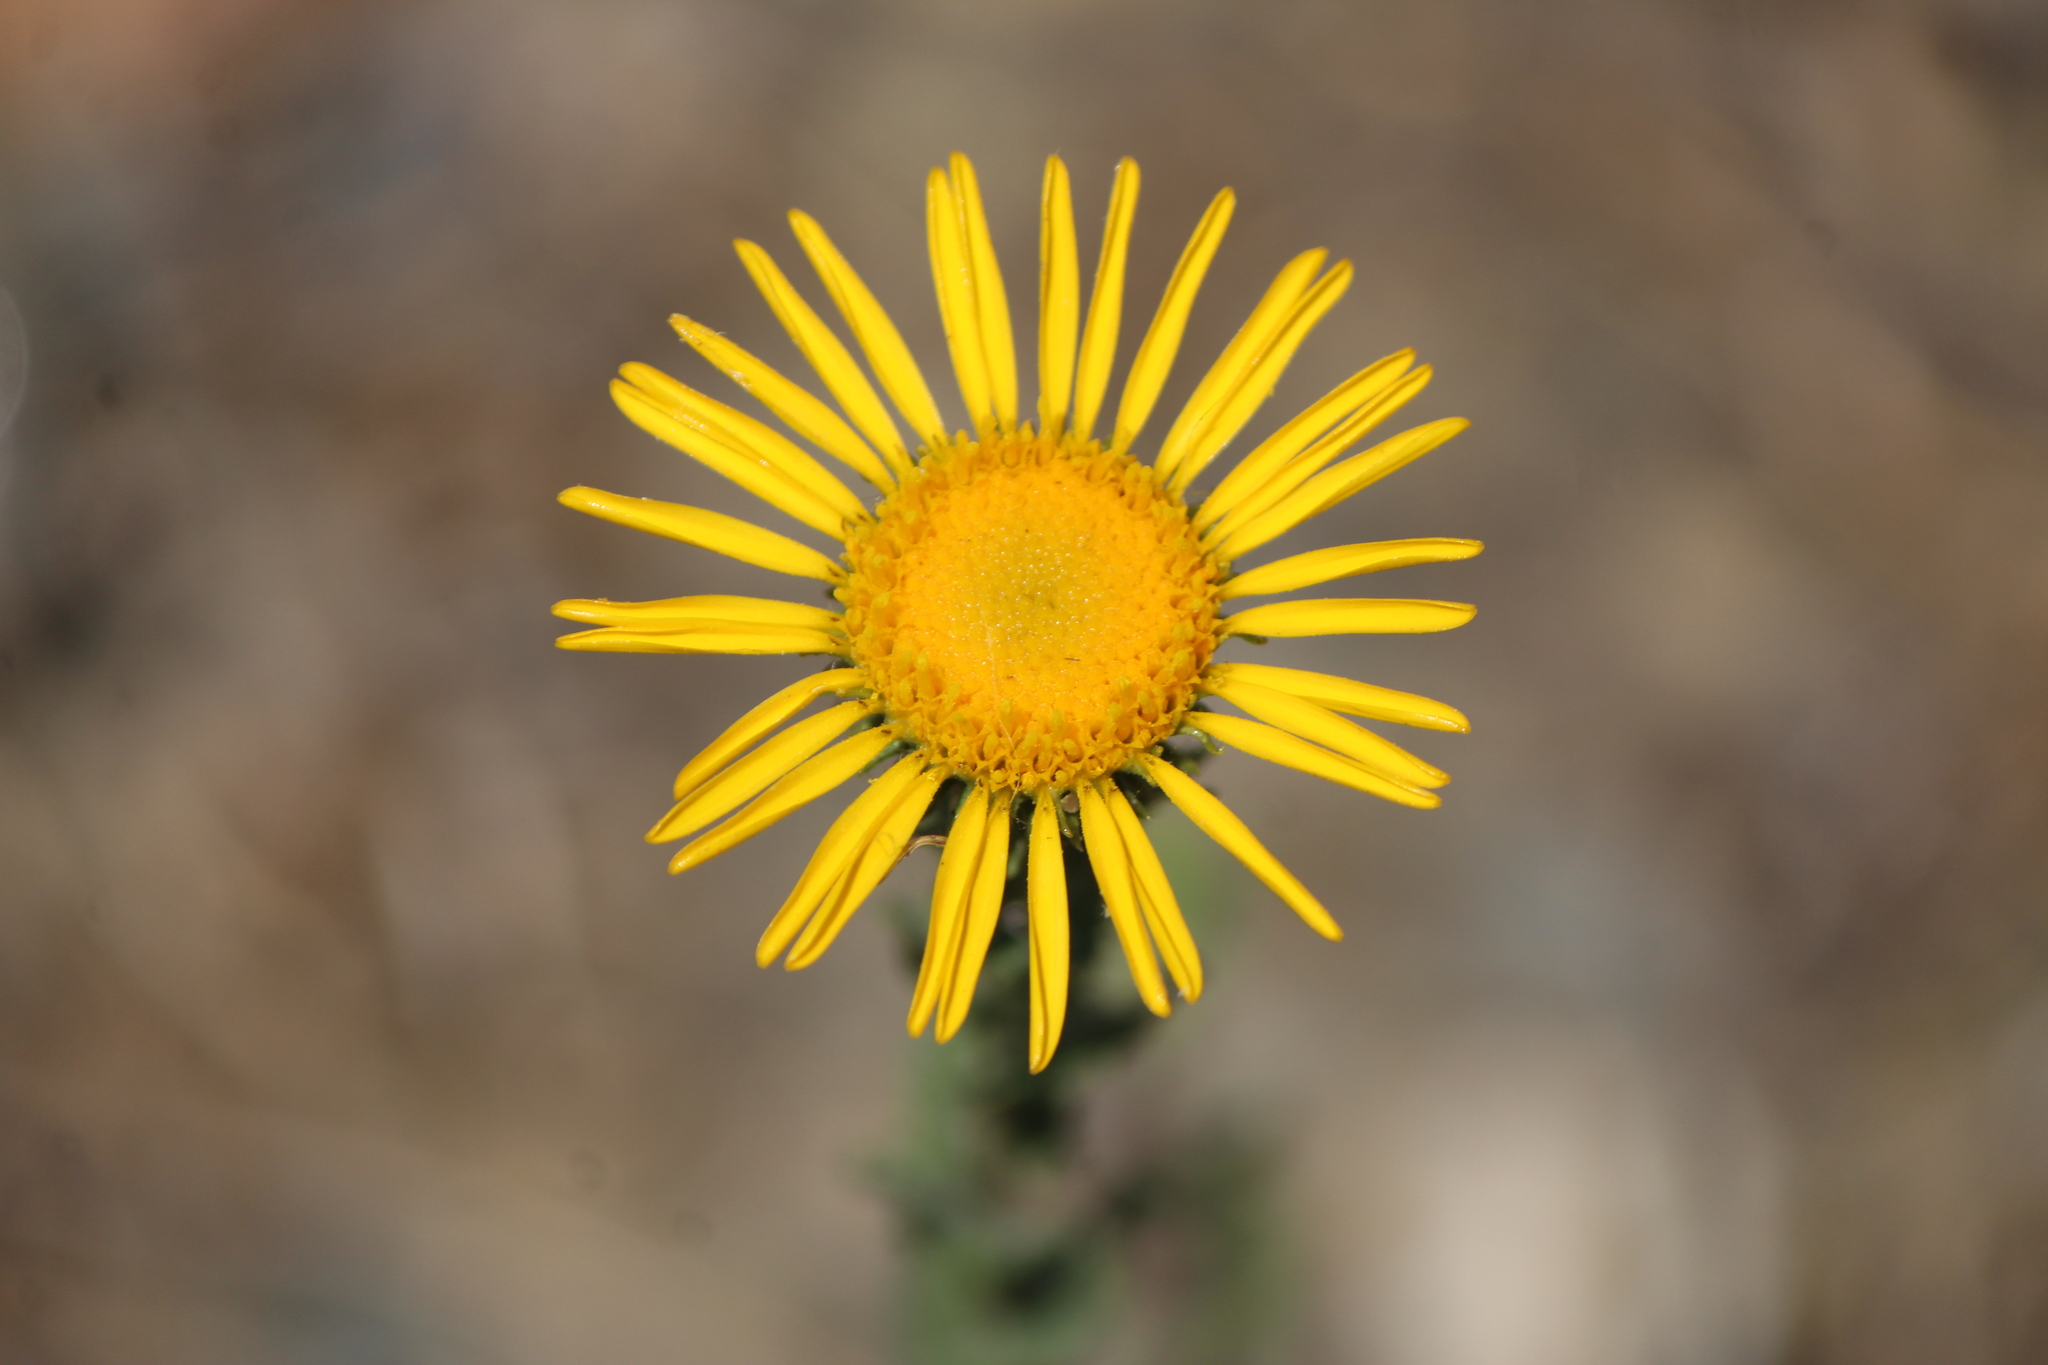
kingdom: Plantae
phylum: Tracheophyta
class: Magnoliopsida
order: Asterales
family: Asteraceae
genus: Grindelia
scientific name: Grindelia inuloides
